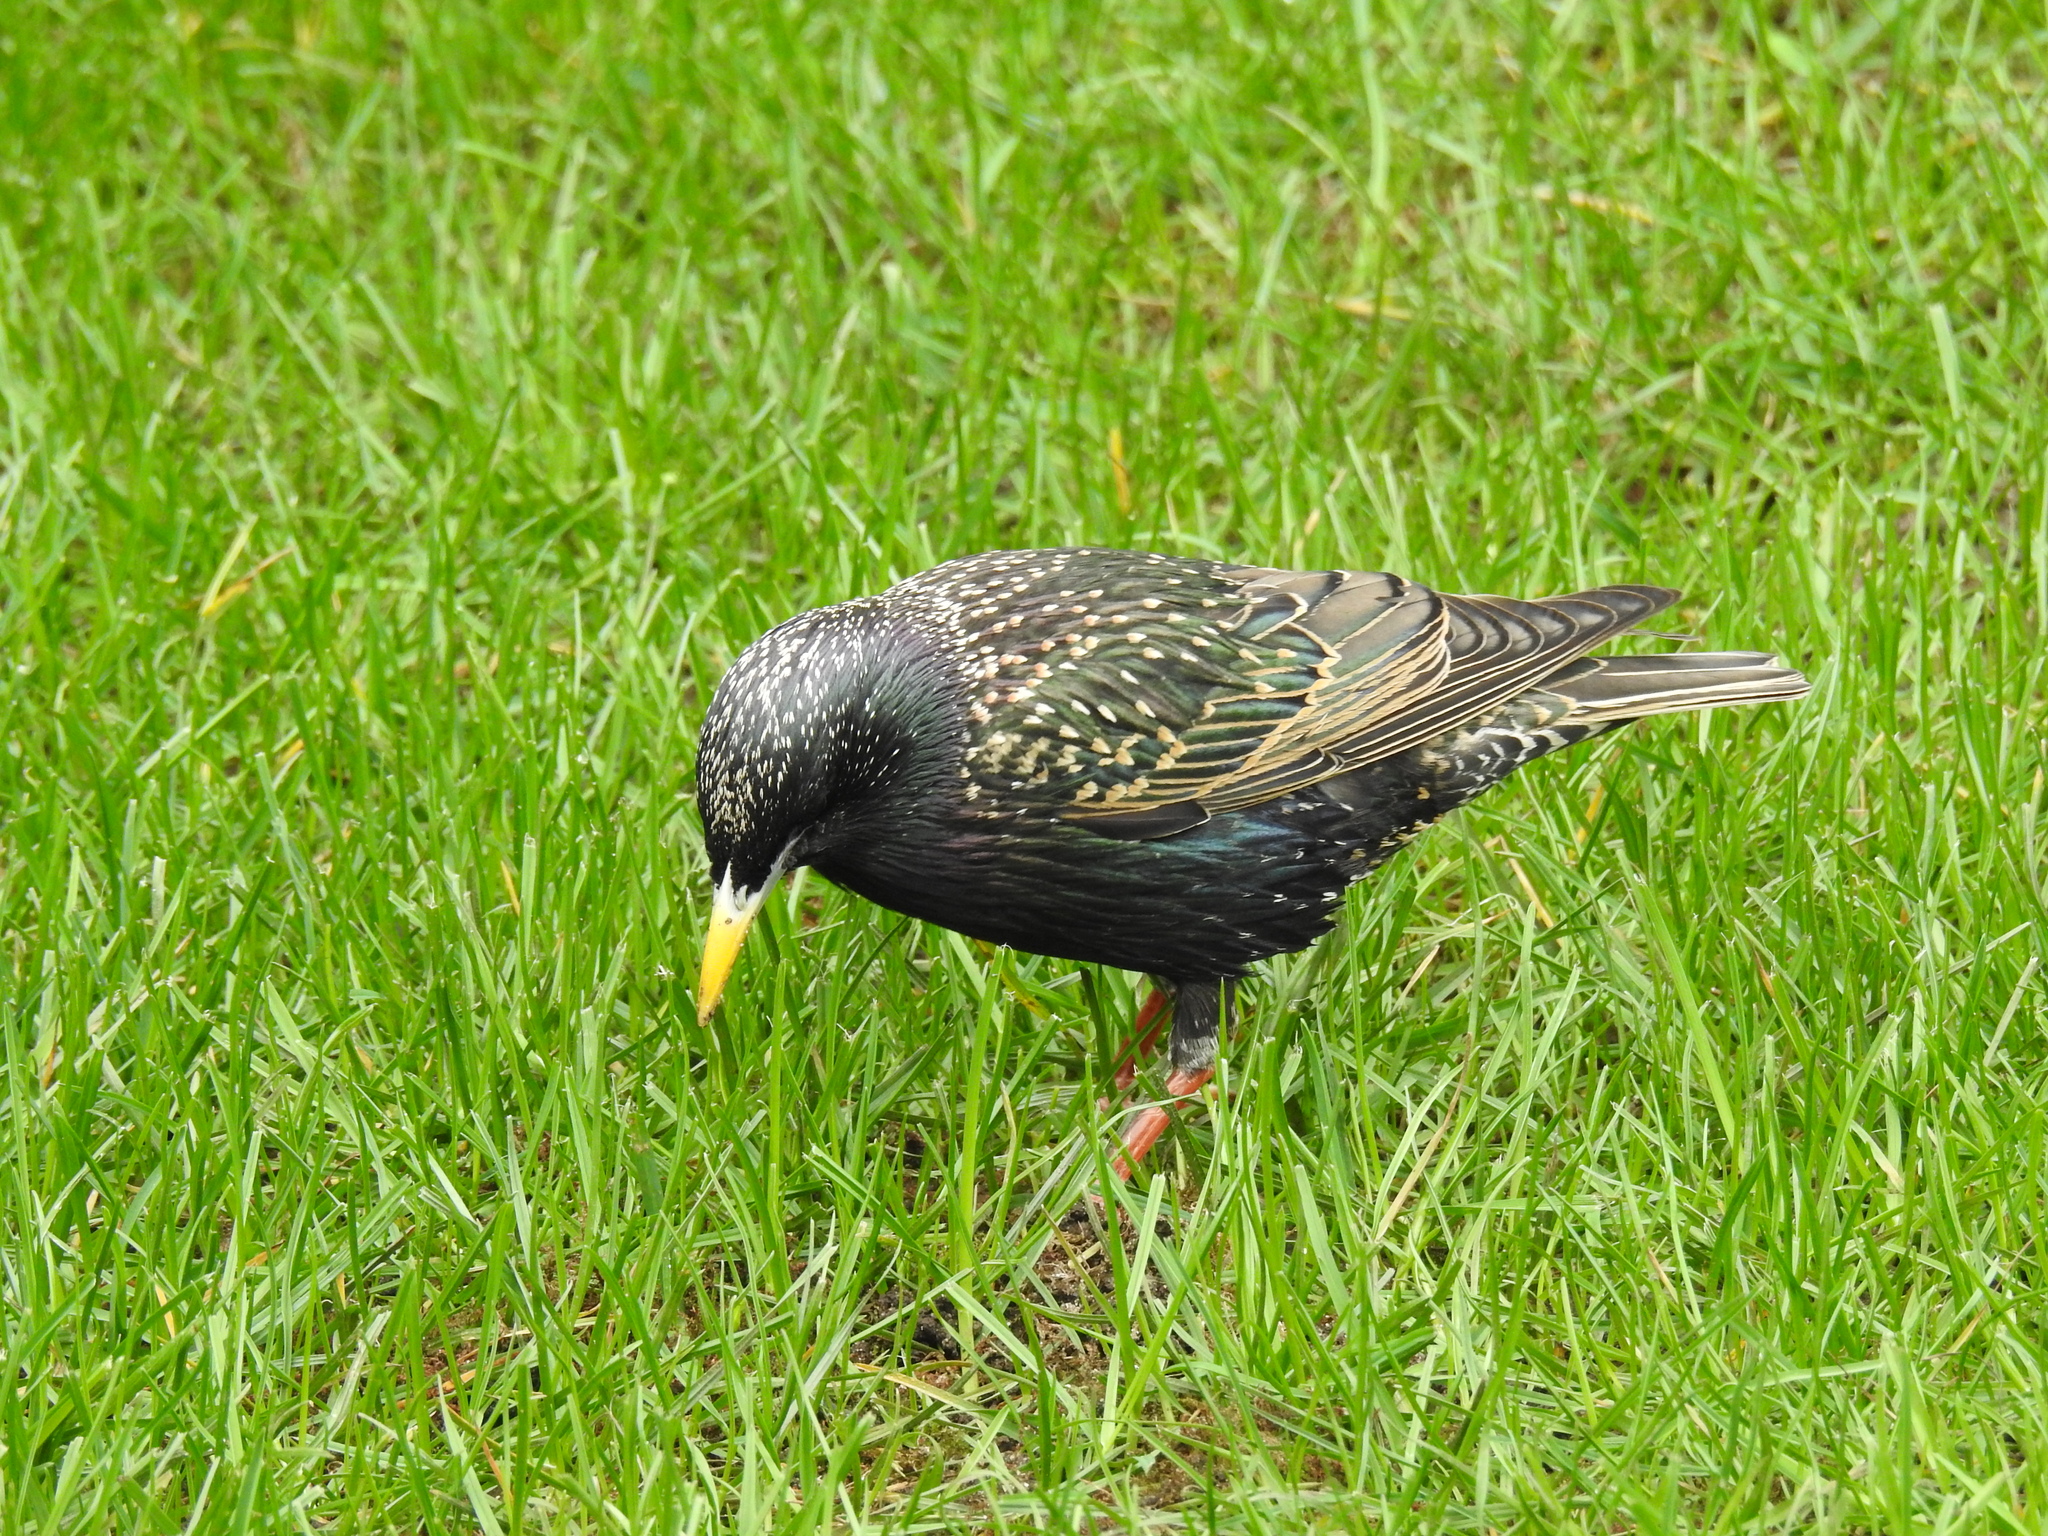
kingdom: Animalia
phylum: Chordata
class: Aves
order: Passeriformes
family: Sturnidae
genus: Sturnus
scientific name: Sturnus vulgaris
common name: Common starling
